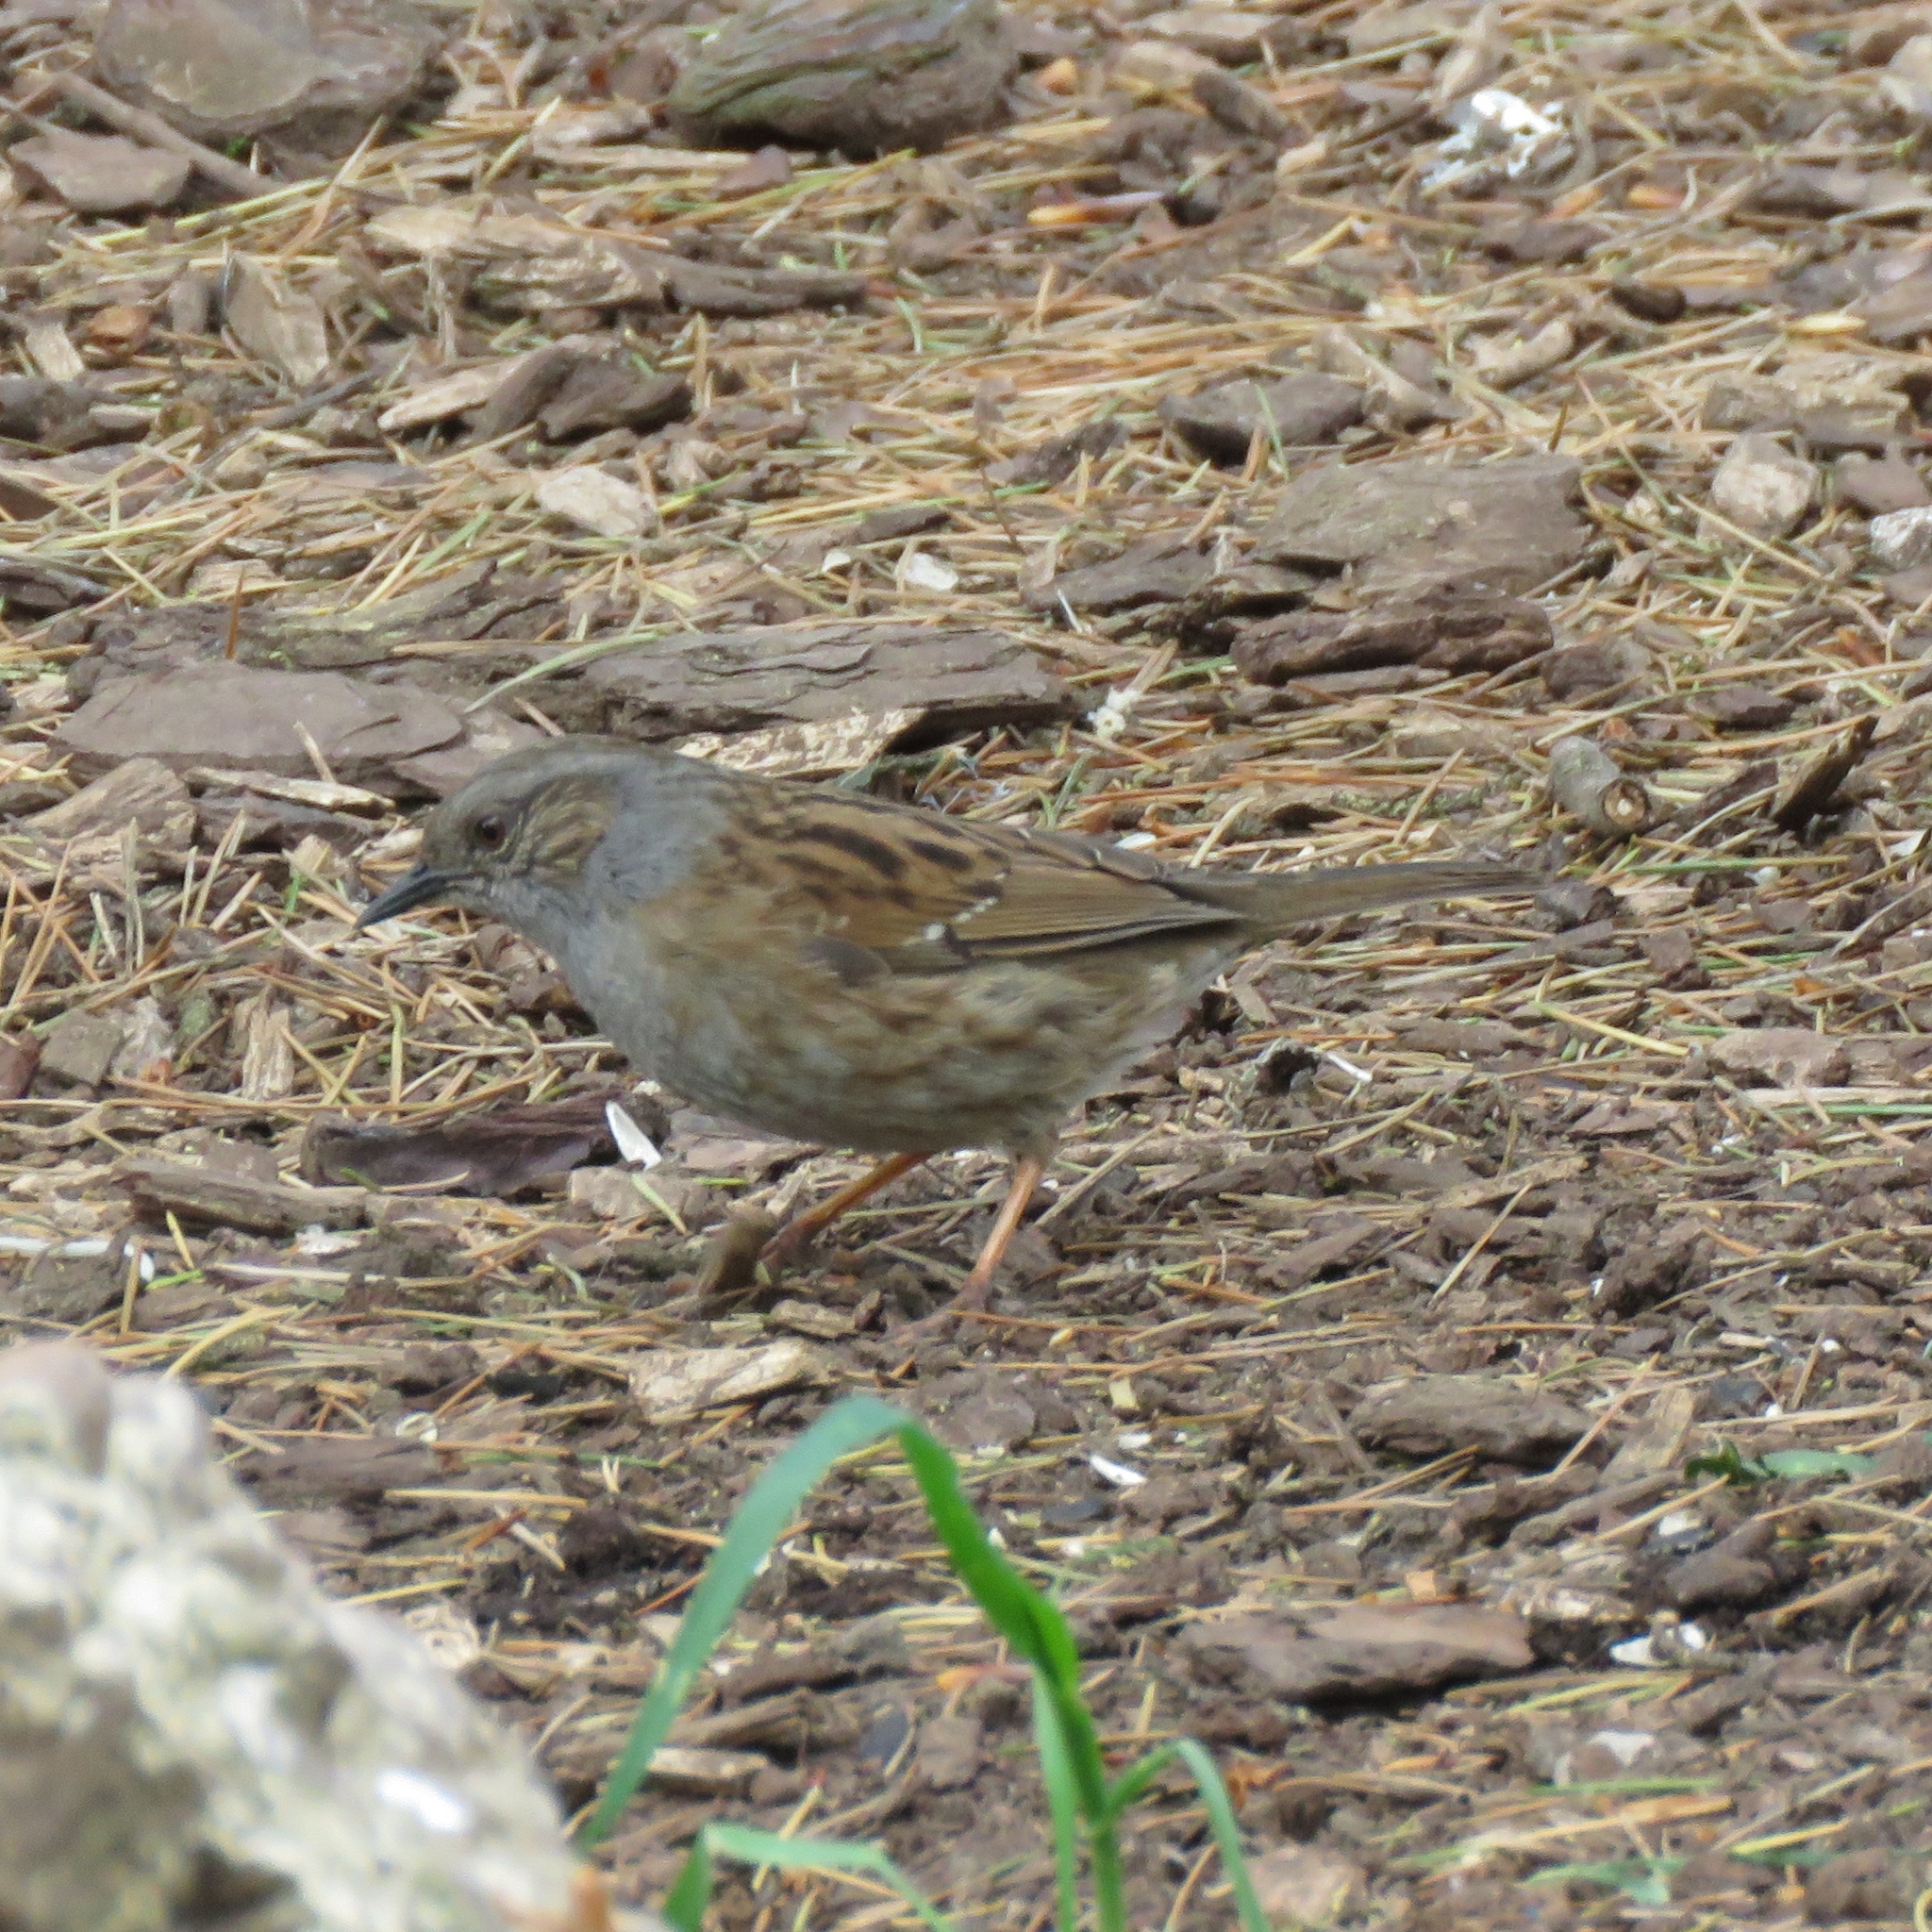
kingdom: Animalia
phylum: Chordata
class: Aves
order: Passeriformes
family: Prunellidae
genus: Prunella
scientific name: Prunella modularis
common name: Dunnock
